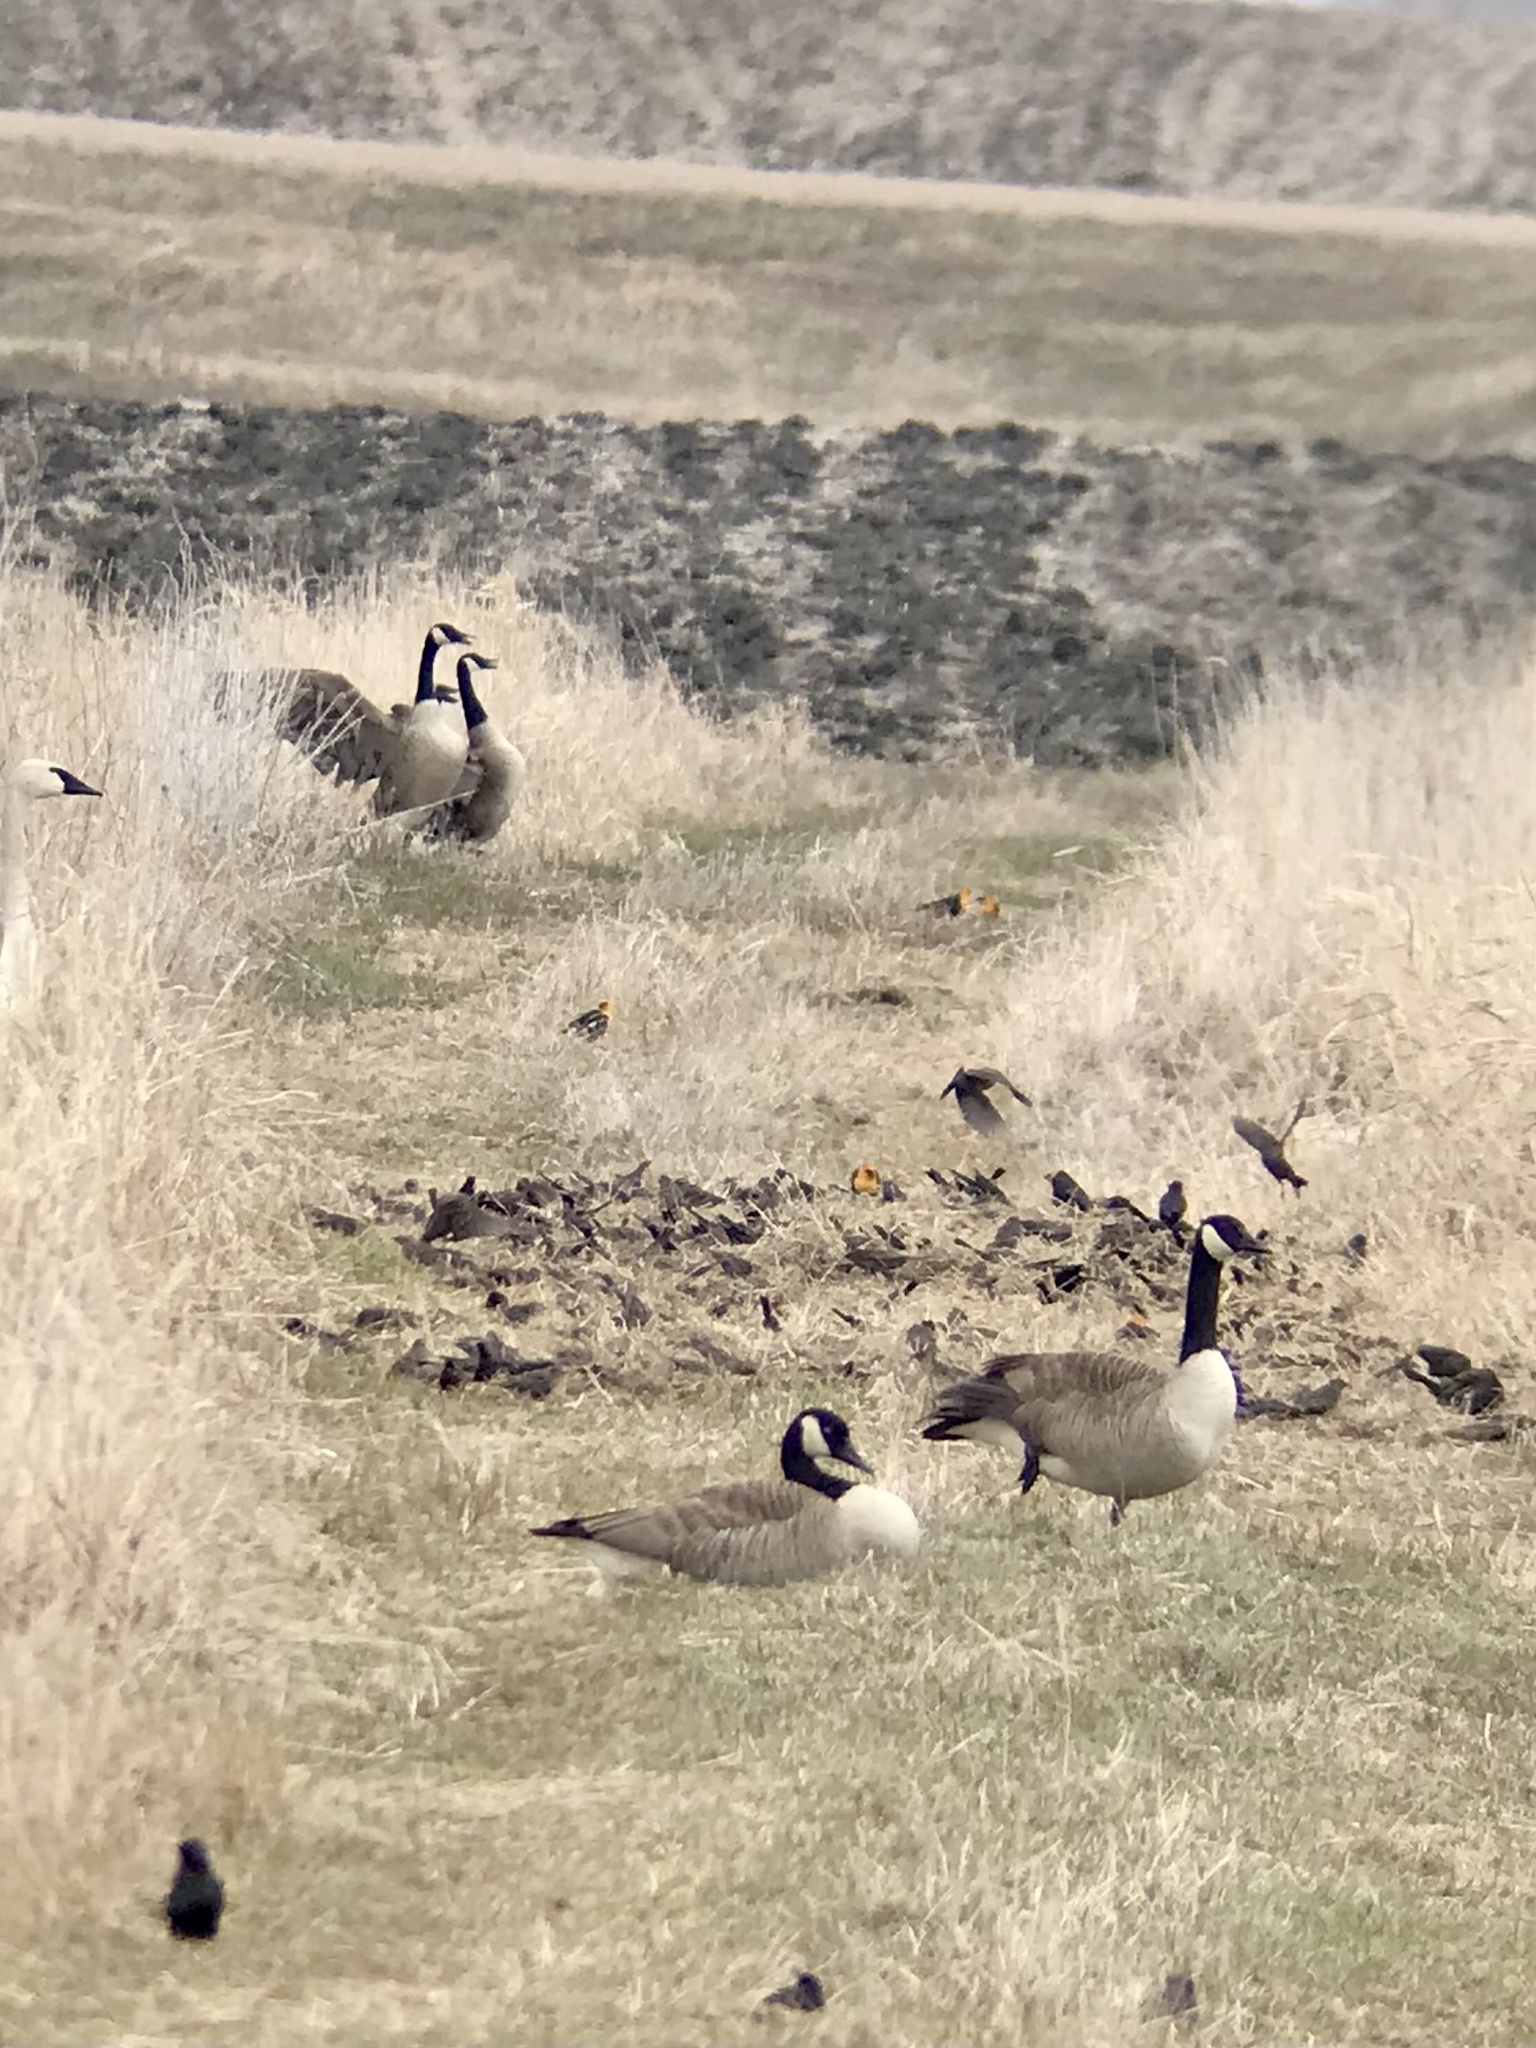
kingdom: Animalia
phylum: Chordata
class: Aves
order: Passeriformes
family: Icteridae
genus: Xanthocephalus
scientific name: Xanthocephalus xanthocephalus
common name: Yellow-headed blackbird
